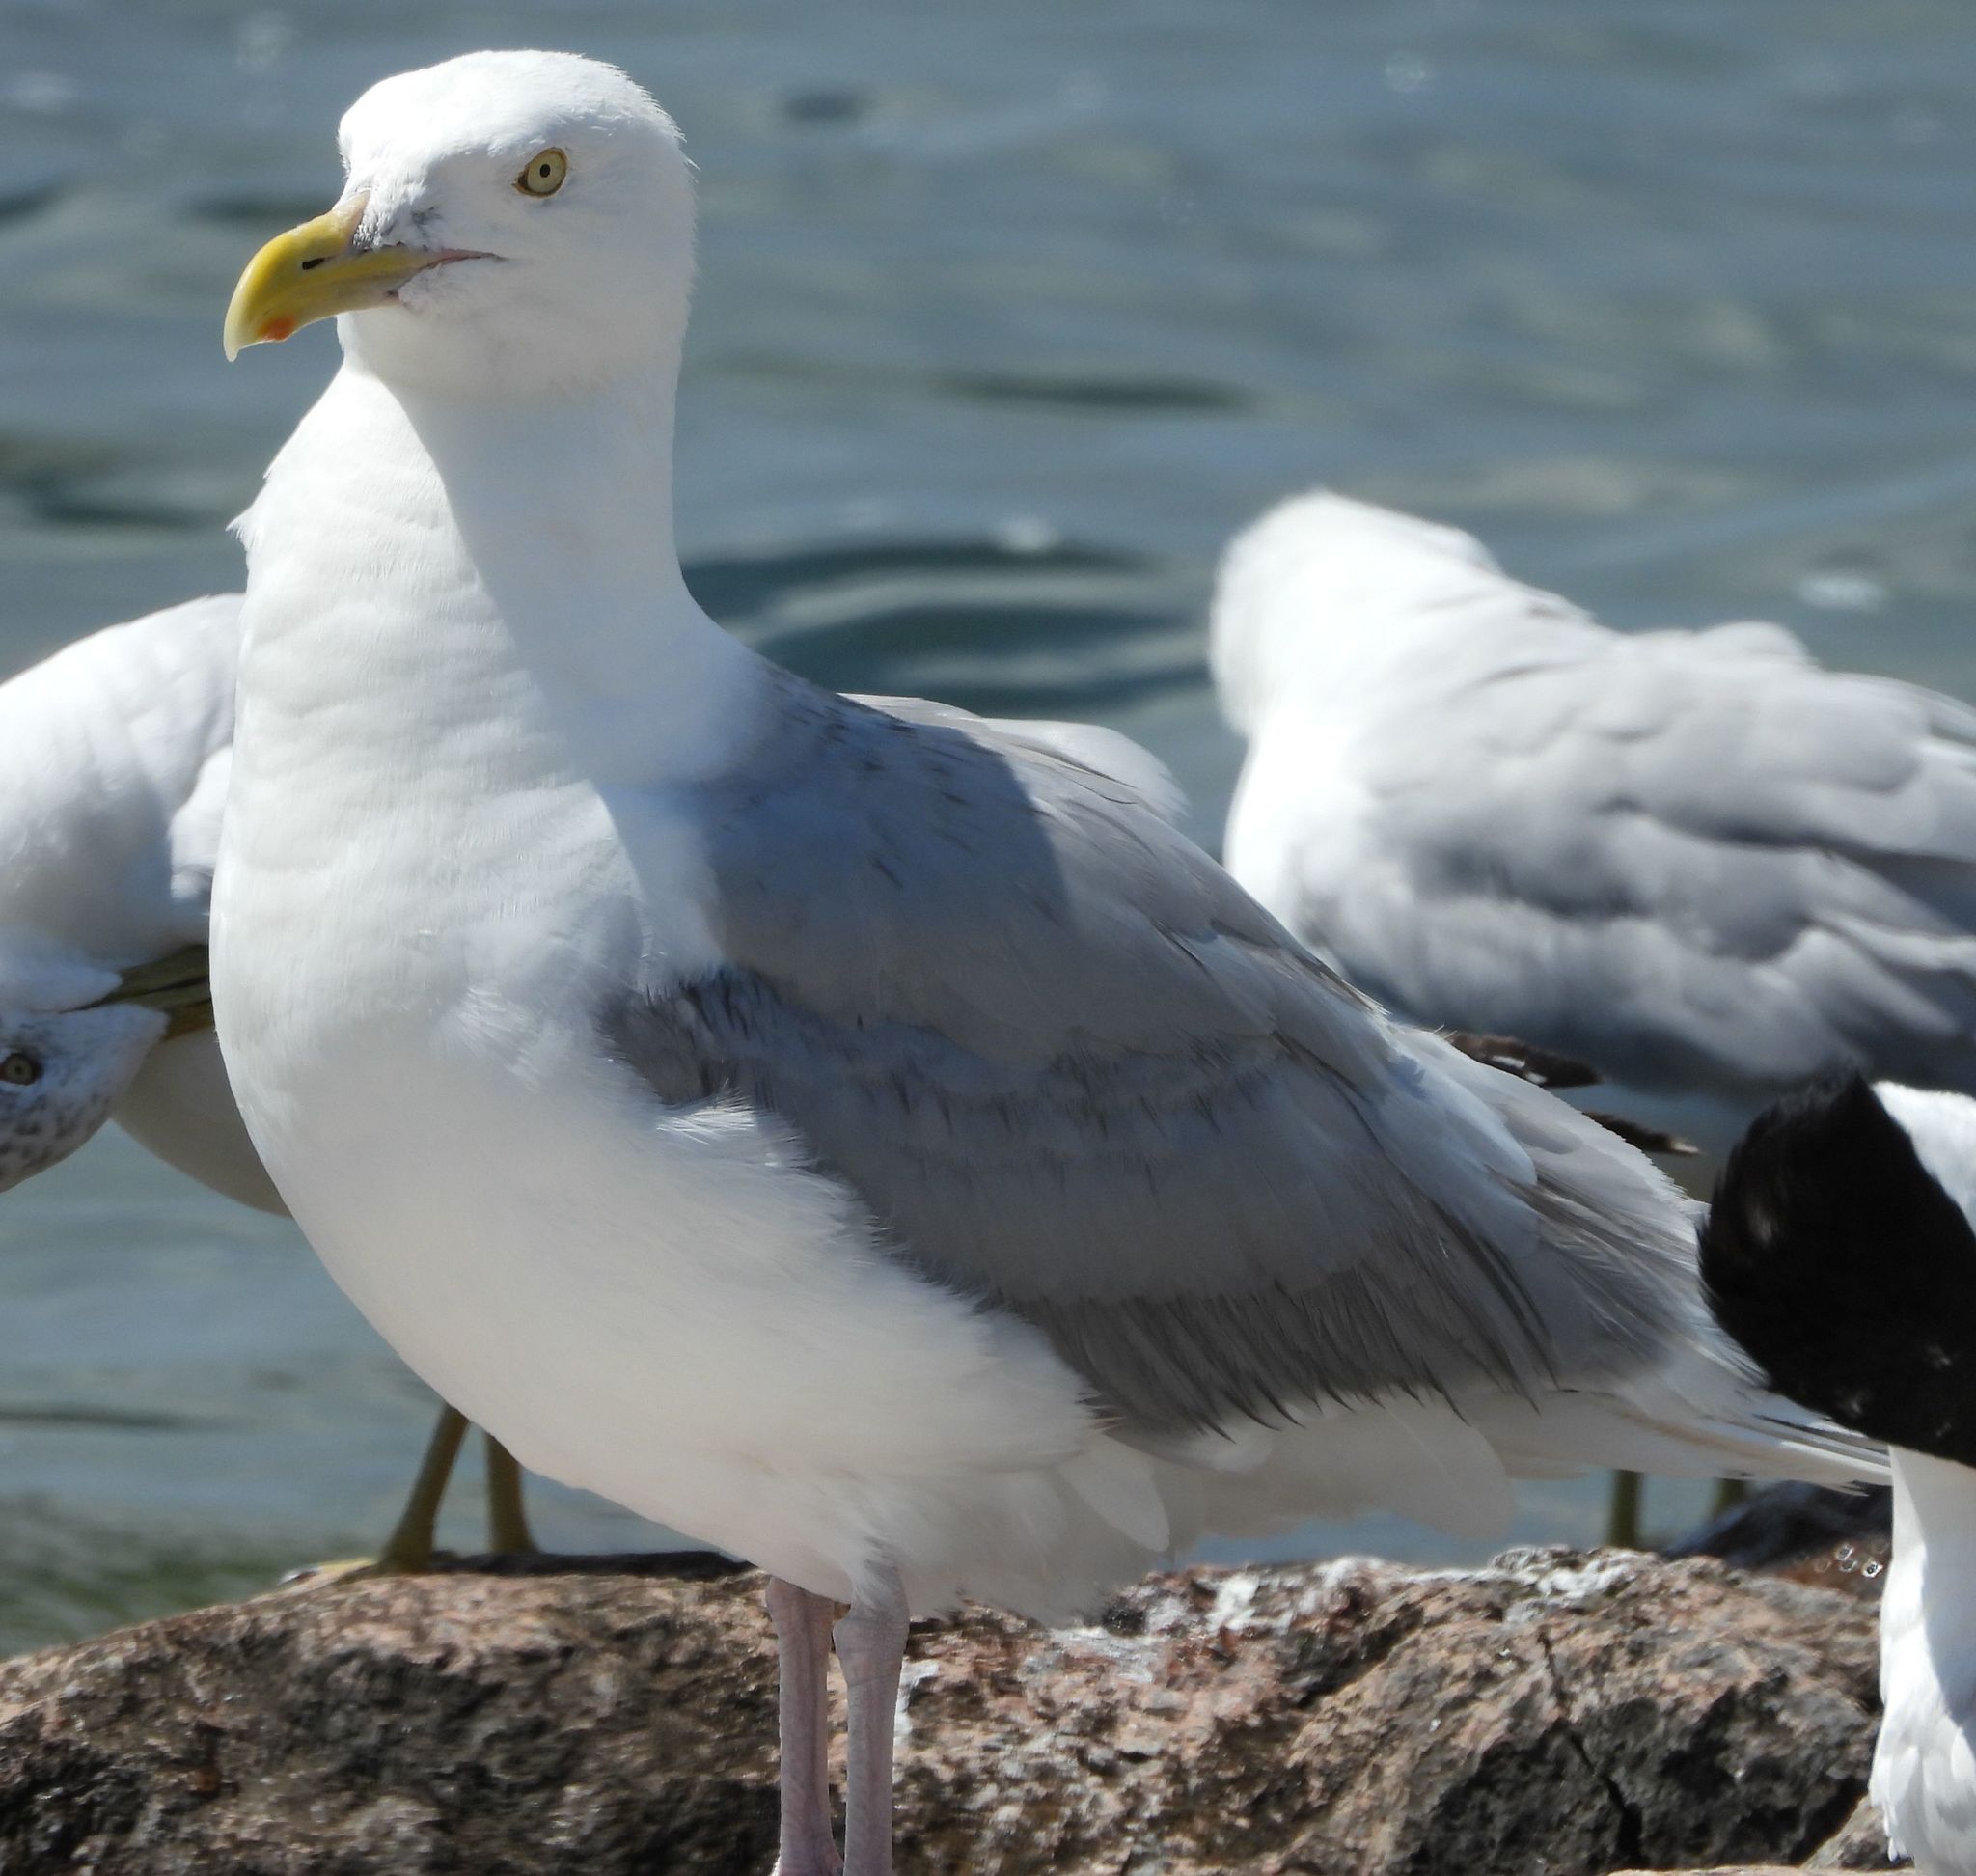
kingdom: Animalia
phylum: Chordata
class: Aves
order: Charadriiformes
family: Laridae
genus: Larus
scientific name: Larus argentatus
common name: Herring gull
